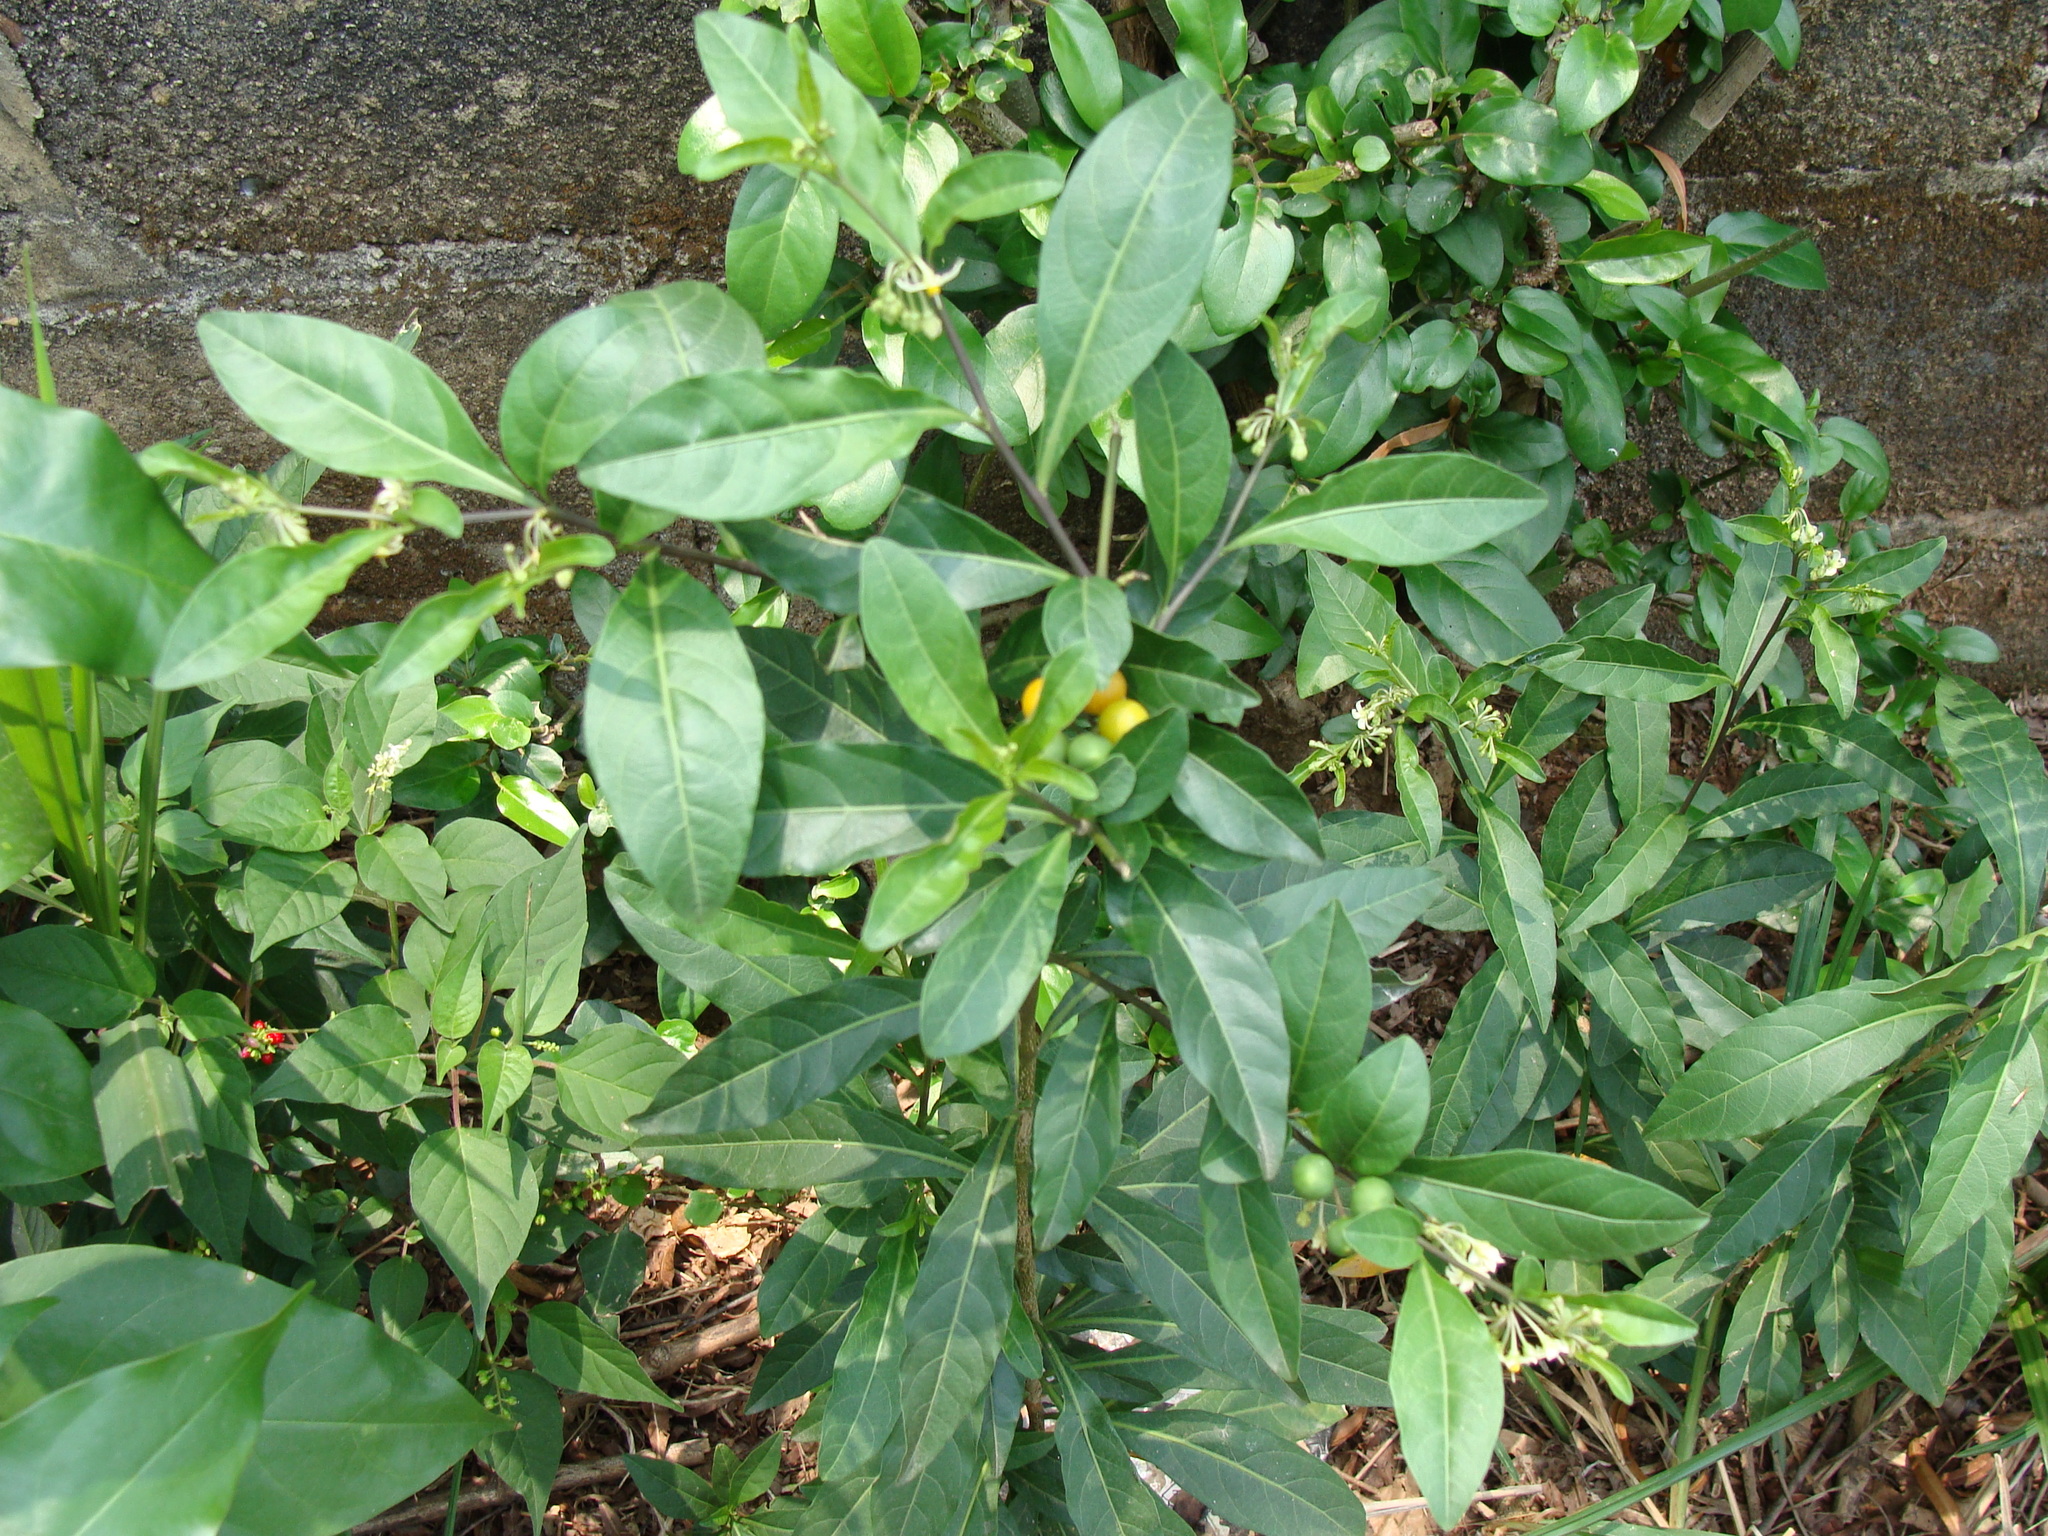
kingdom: Plantae
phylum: Tracheophyta
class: Magnoliopsida
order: Solanales
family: Solanaceae
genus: Solanum
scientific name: Solanum diphyllum
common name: Twoleaf nightshade
